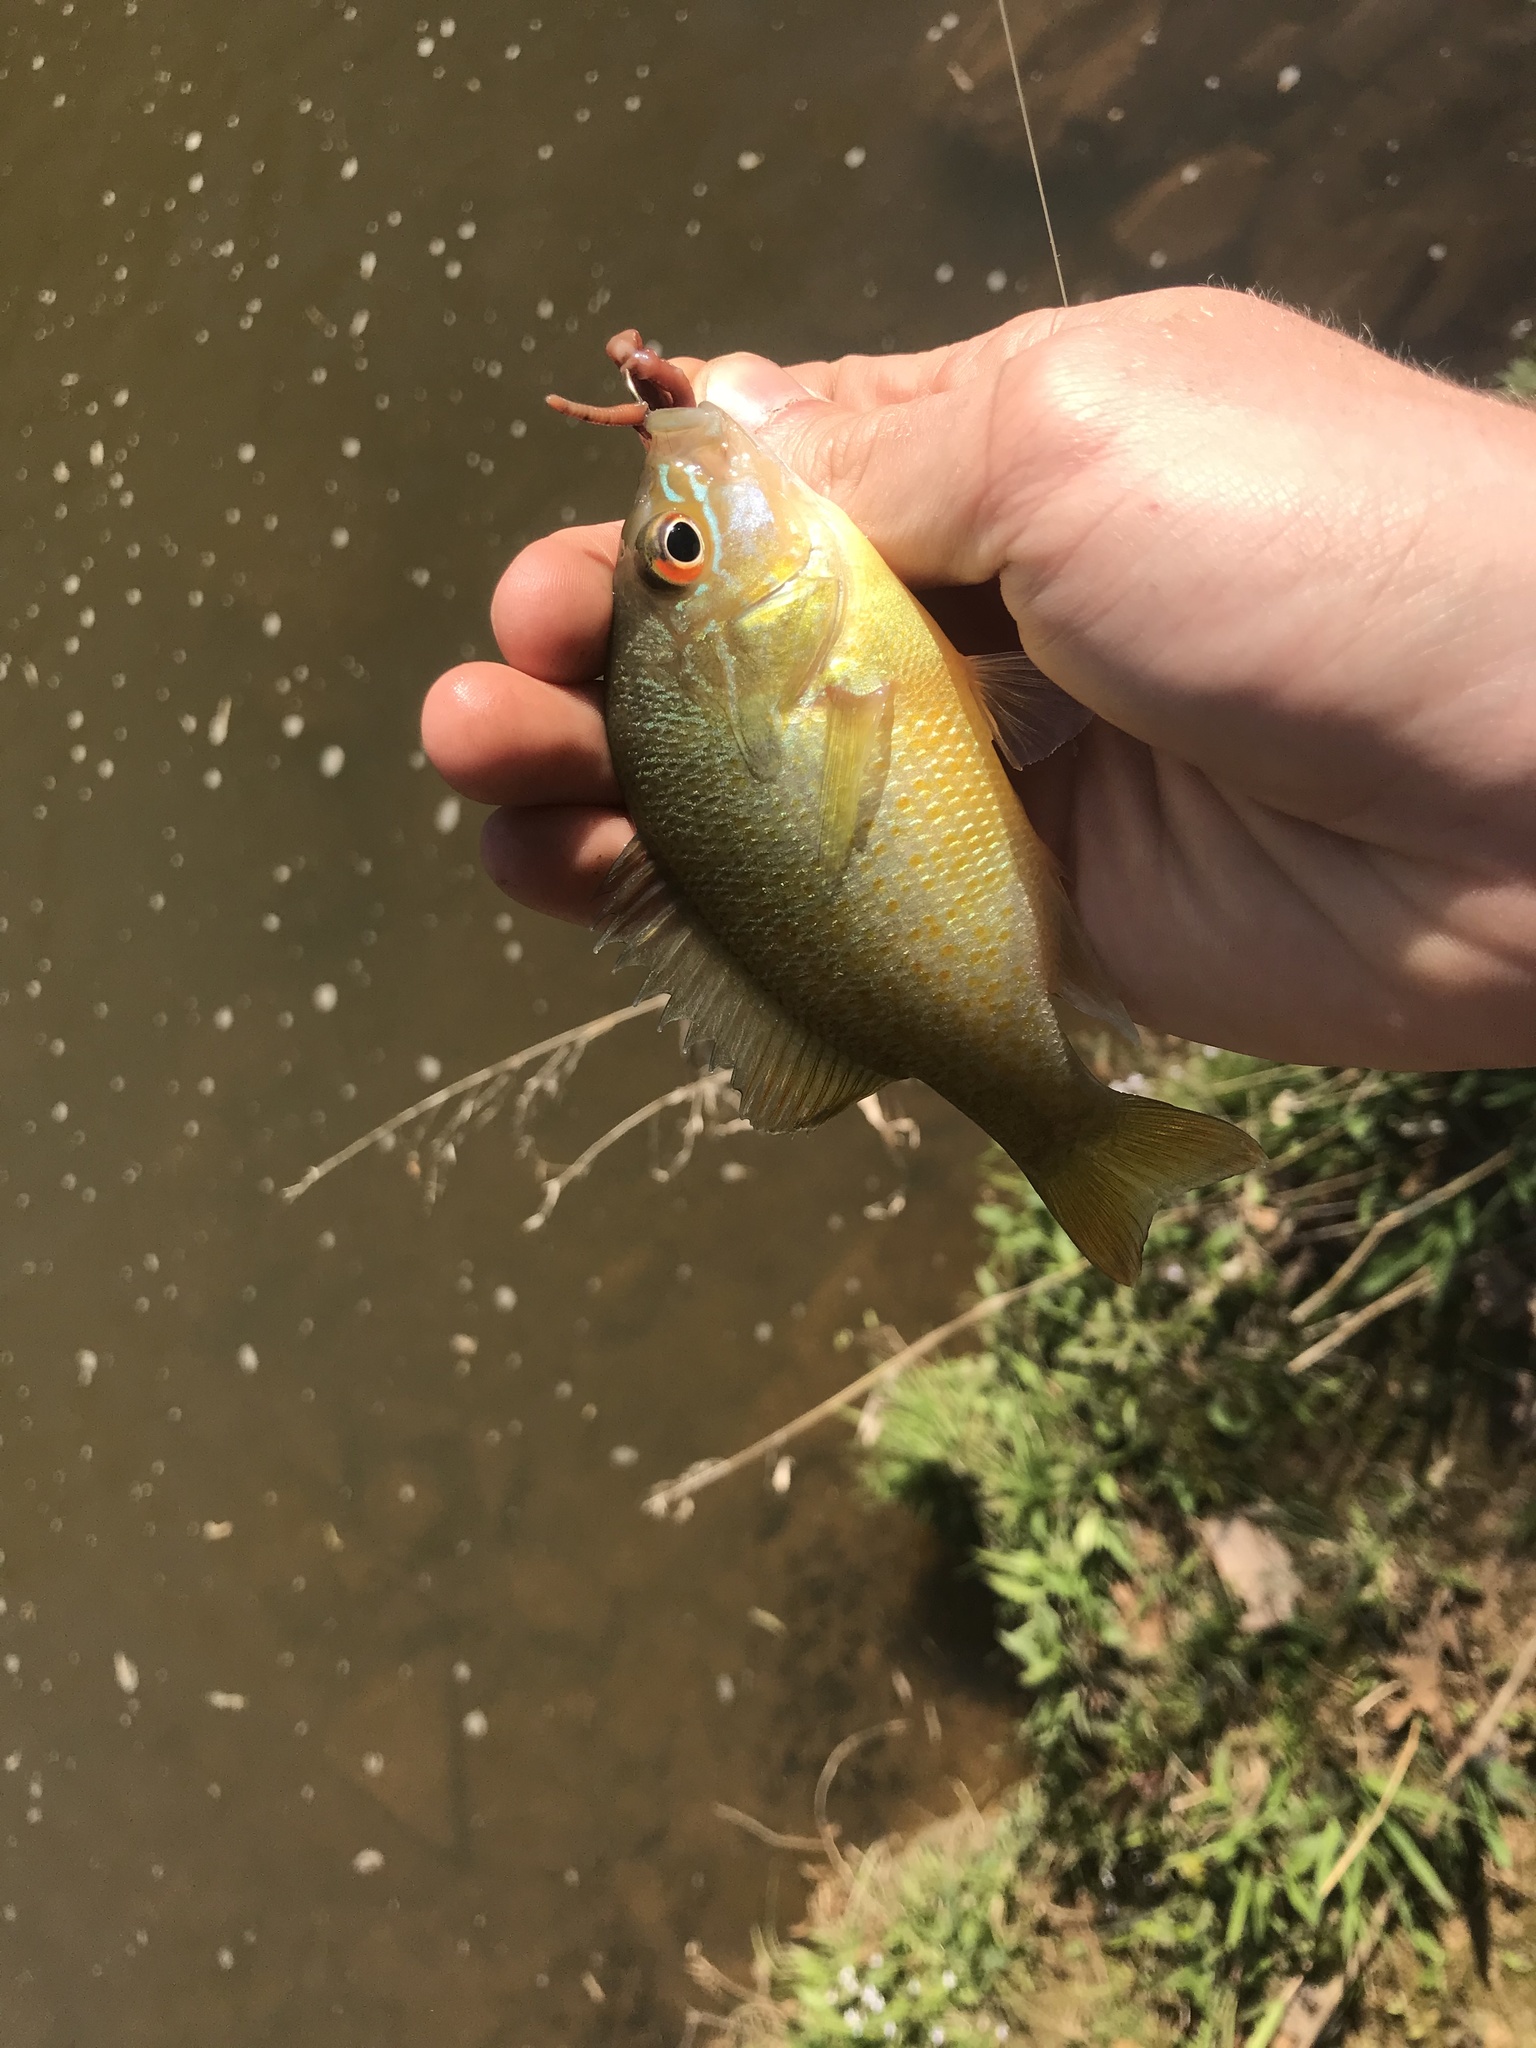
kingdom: Animalia
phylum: Chordata
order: Perciformes
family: Centrarchidae
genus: Lepomis
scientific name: Lepomis auritus
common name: Redbreast sunfish
